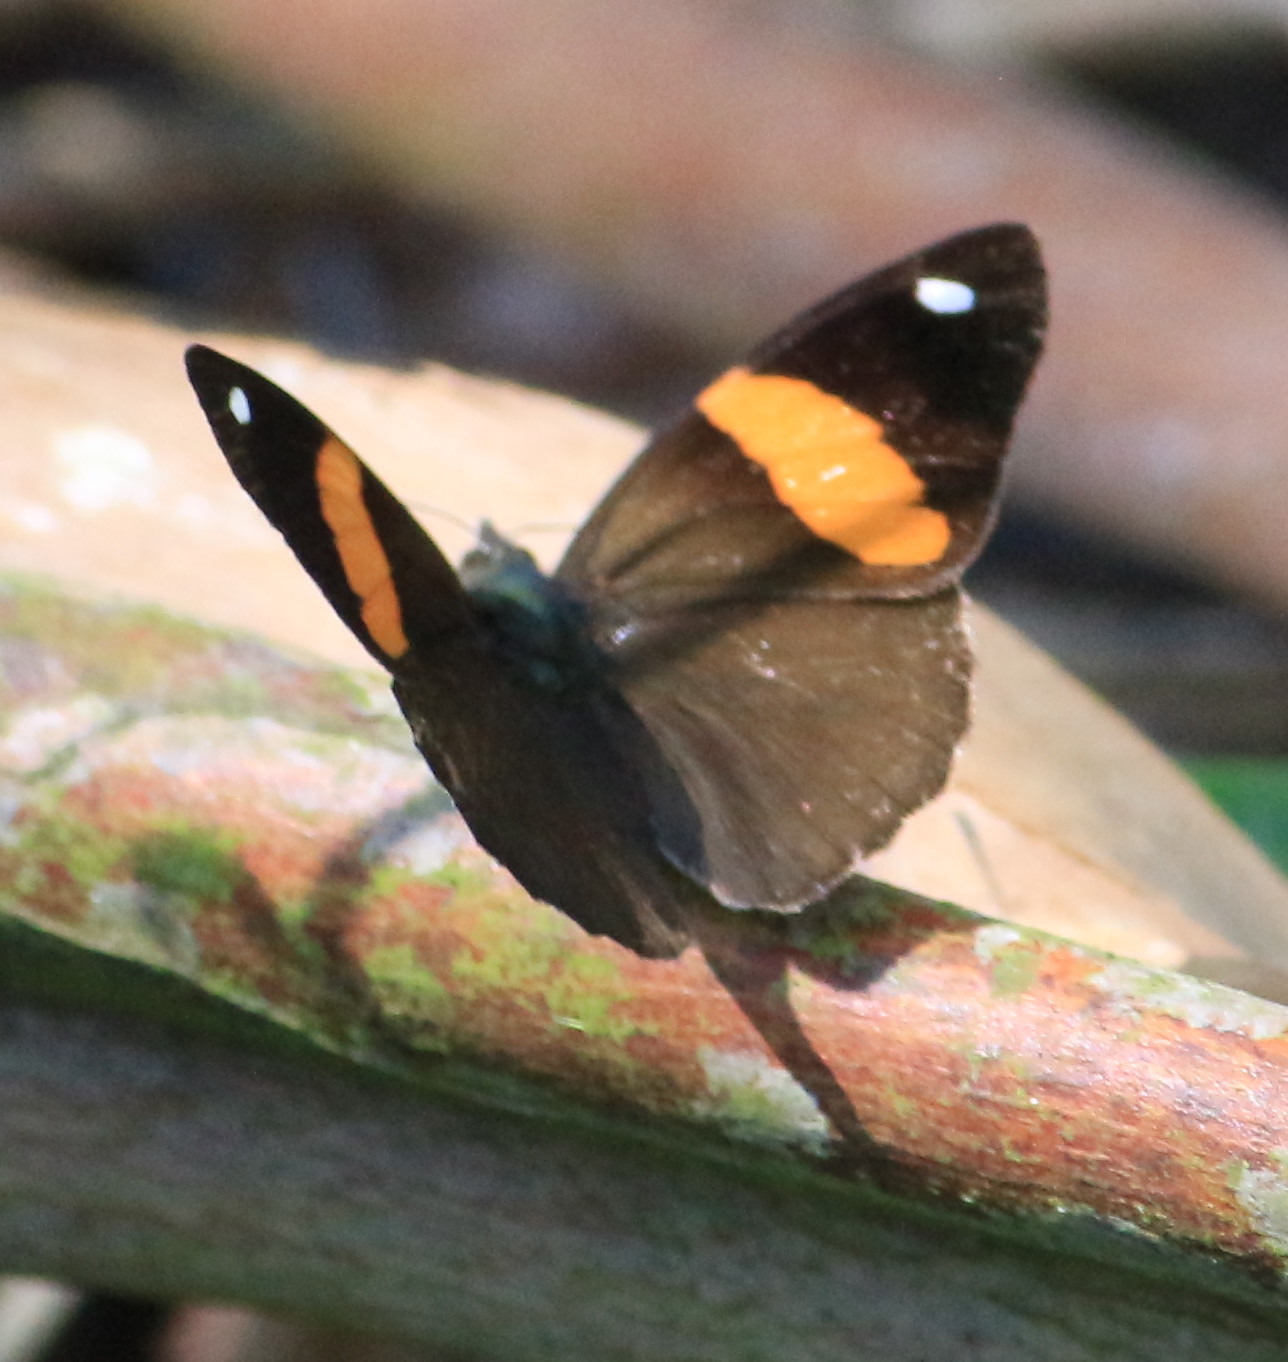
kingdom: Animalia
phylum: Arthropoda
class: Insecta
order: Lepidoptera
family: Nymphalidae
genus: Diaethria
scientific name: Diaethria pandama
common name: Orange-striped eighty-eight
